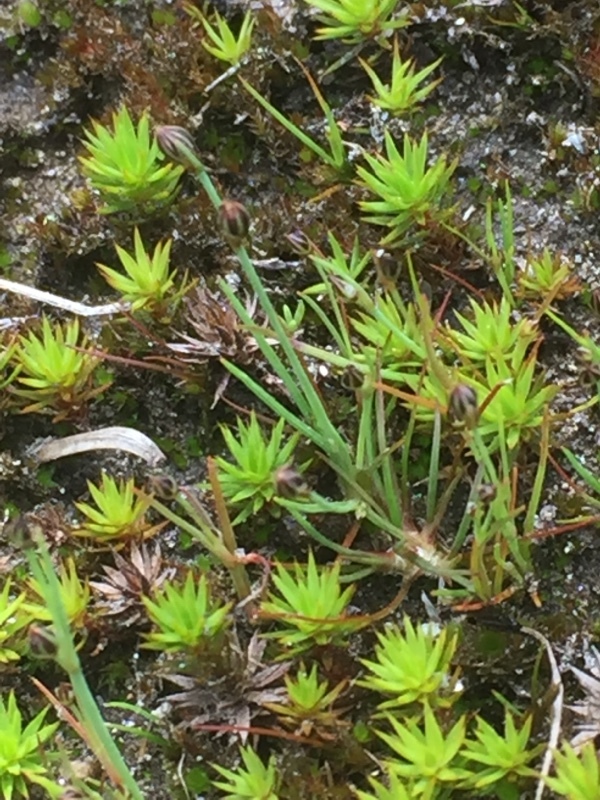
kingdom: Plantae
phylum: Tracheophyta
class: Liliopsida
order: Poales
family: Juncaceae
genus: Juncus
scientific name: Juncus tenageia
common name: Sand rush
